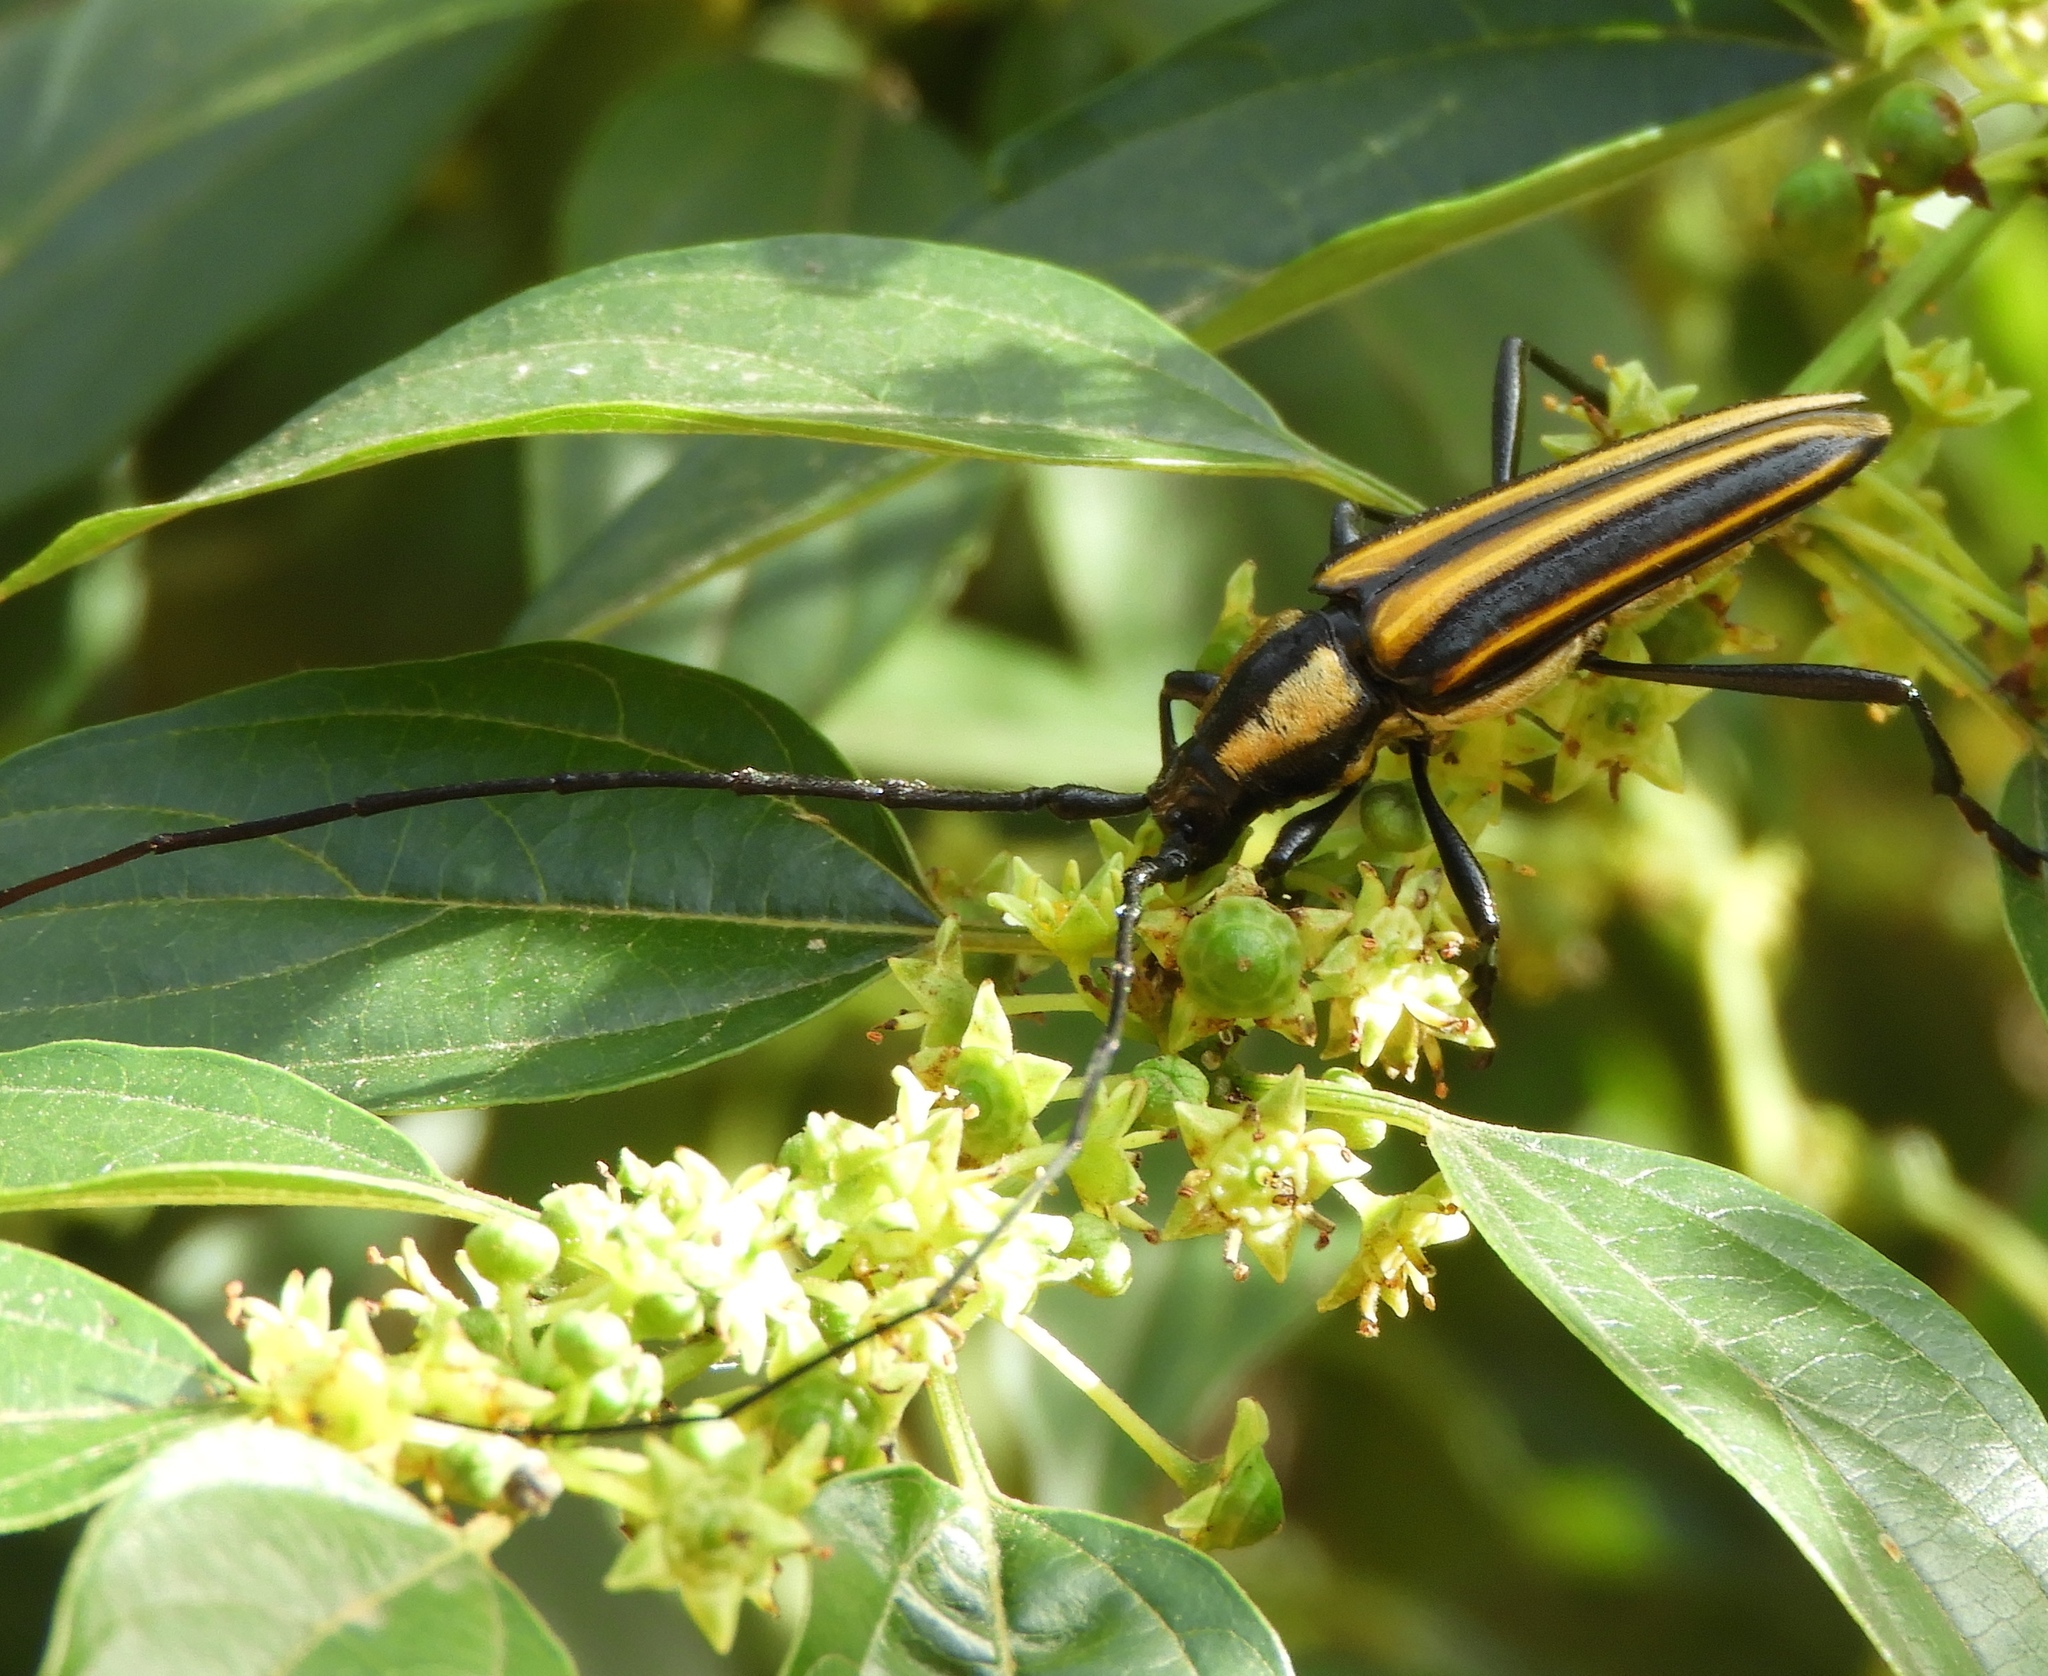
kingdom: Animalia
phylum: Arthropoda
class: Insecta
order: Coleoptera
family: Cerambycidae
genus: Sphaenothecus
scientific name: Sphaenothecus bilineatus
